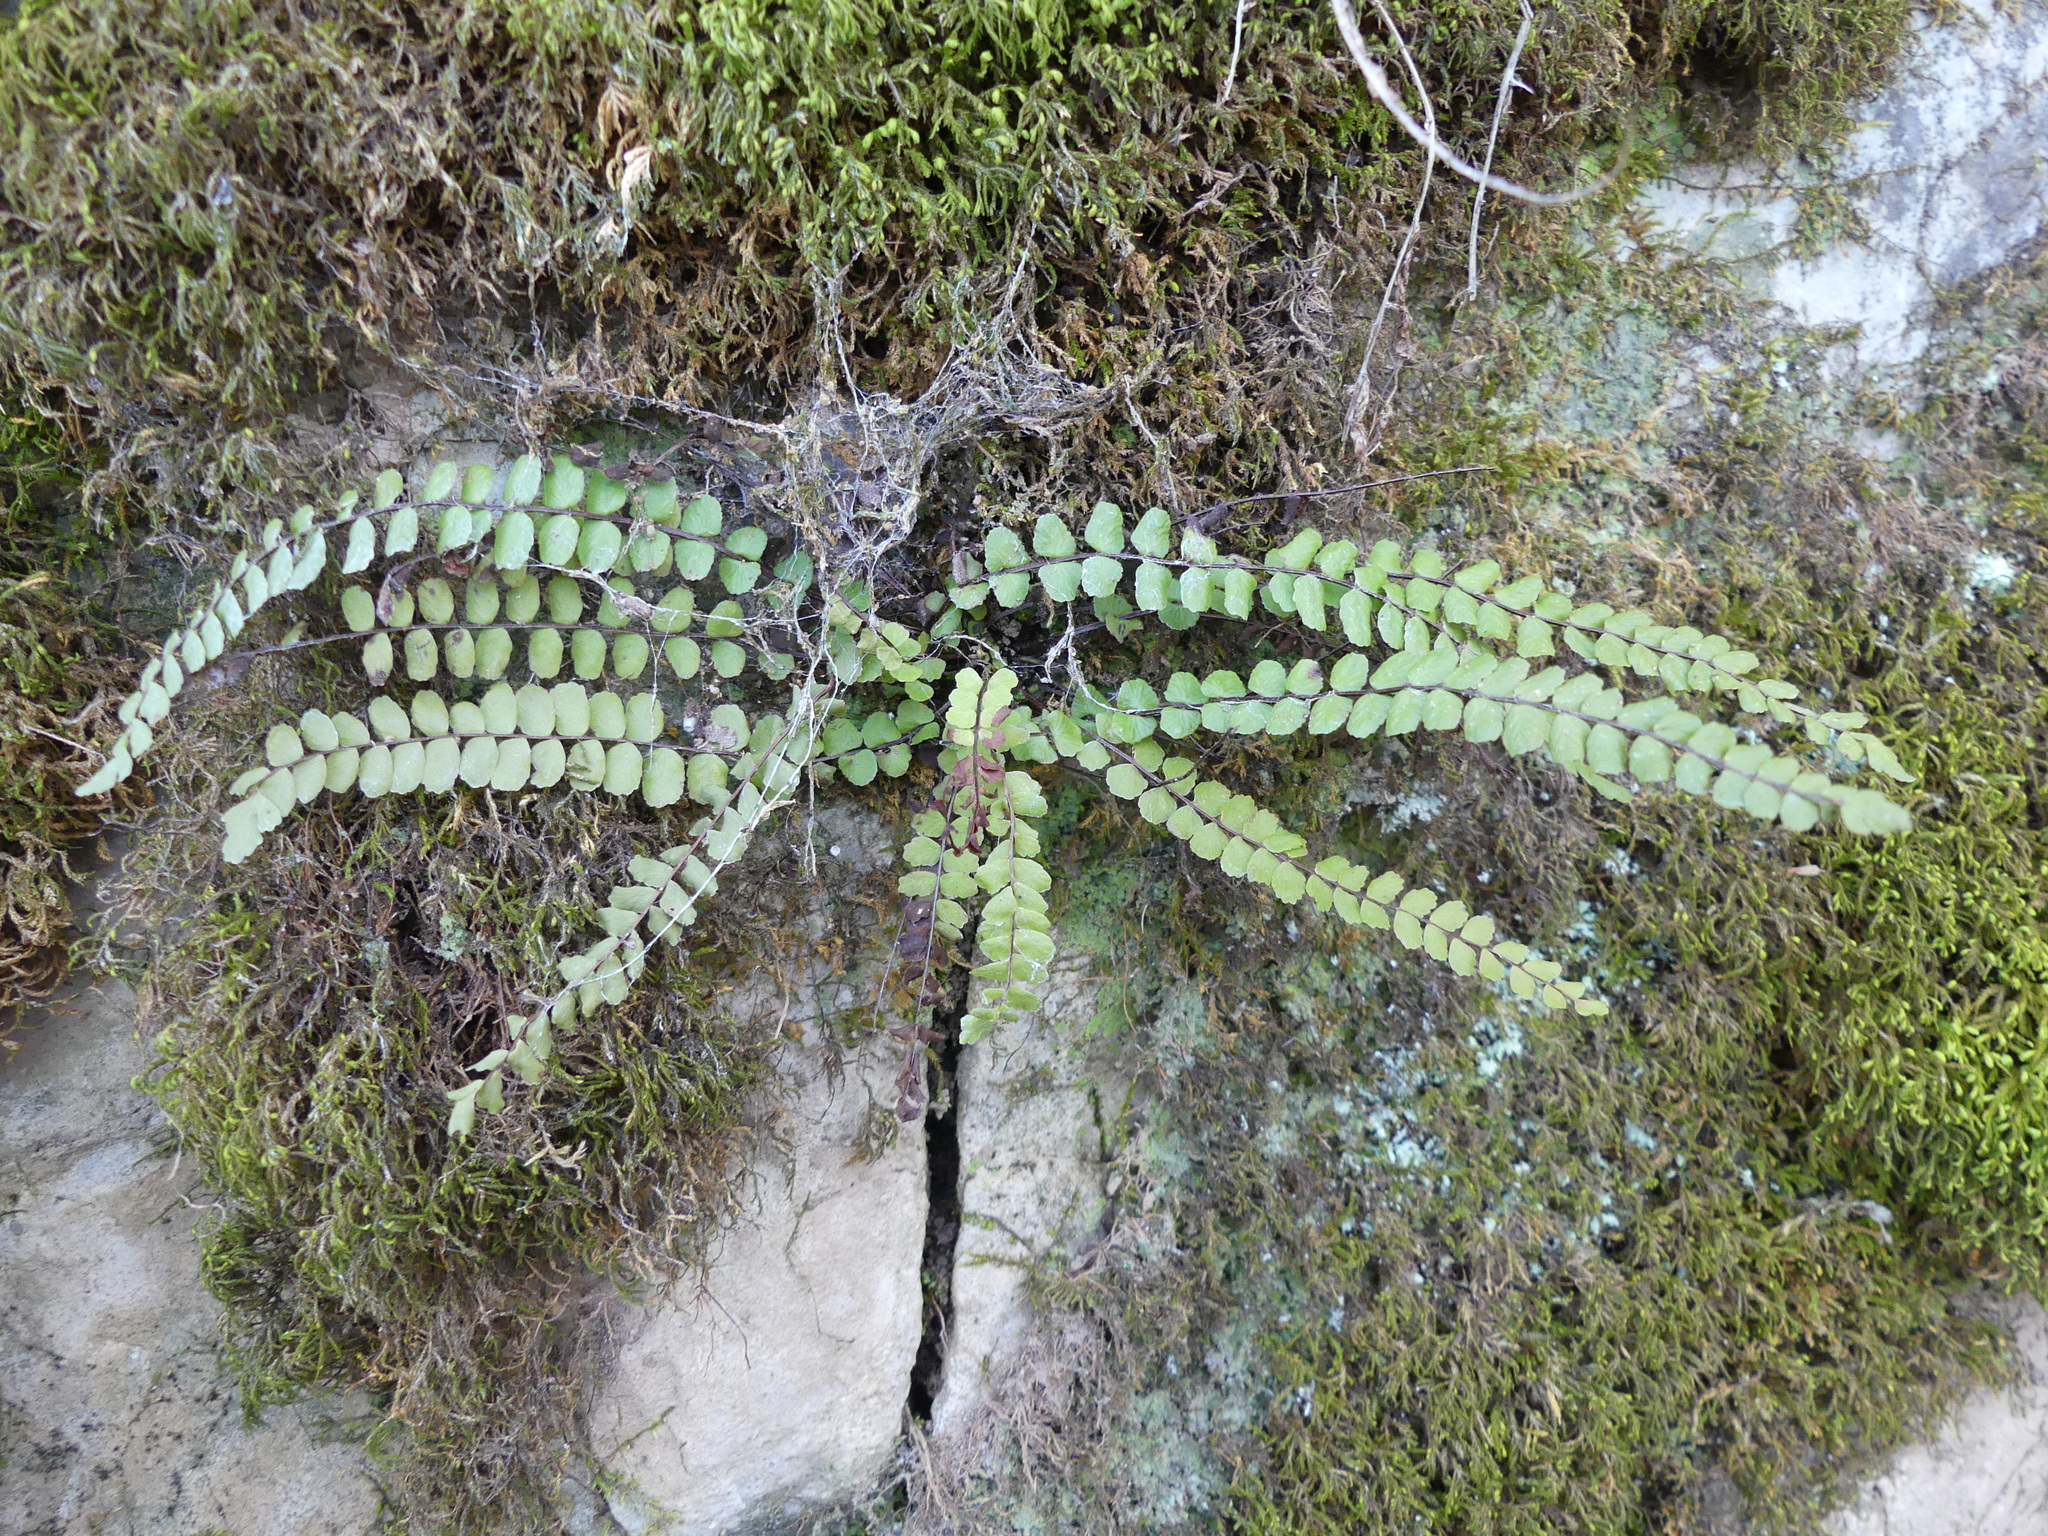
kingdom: Plantae
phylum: Tracheophyta
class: Polypodiopsida
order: Polypodiales
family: Aspleniaceae
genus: Asplenium
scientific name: Asplenium trichomanes
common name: Maidenhair spleenwort
